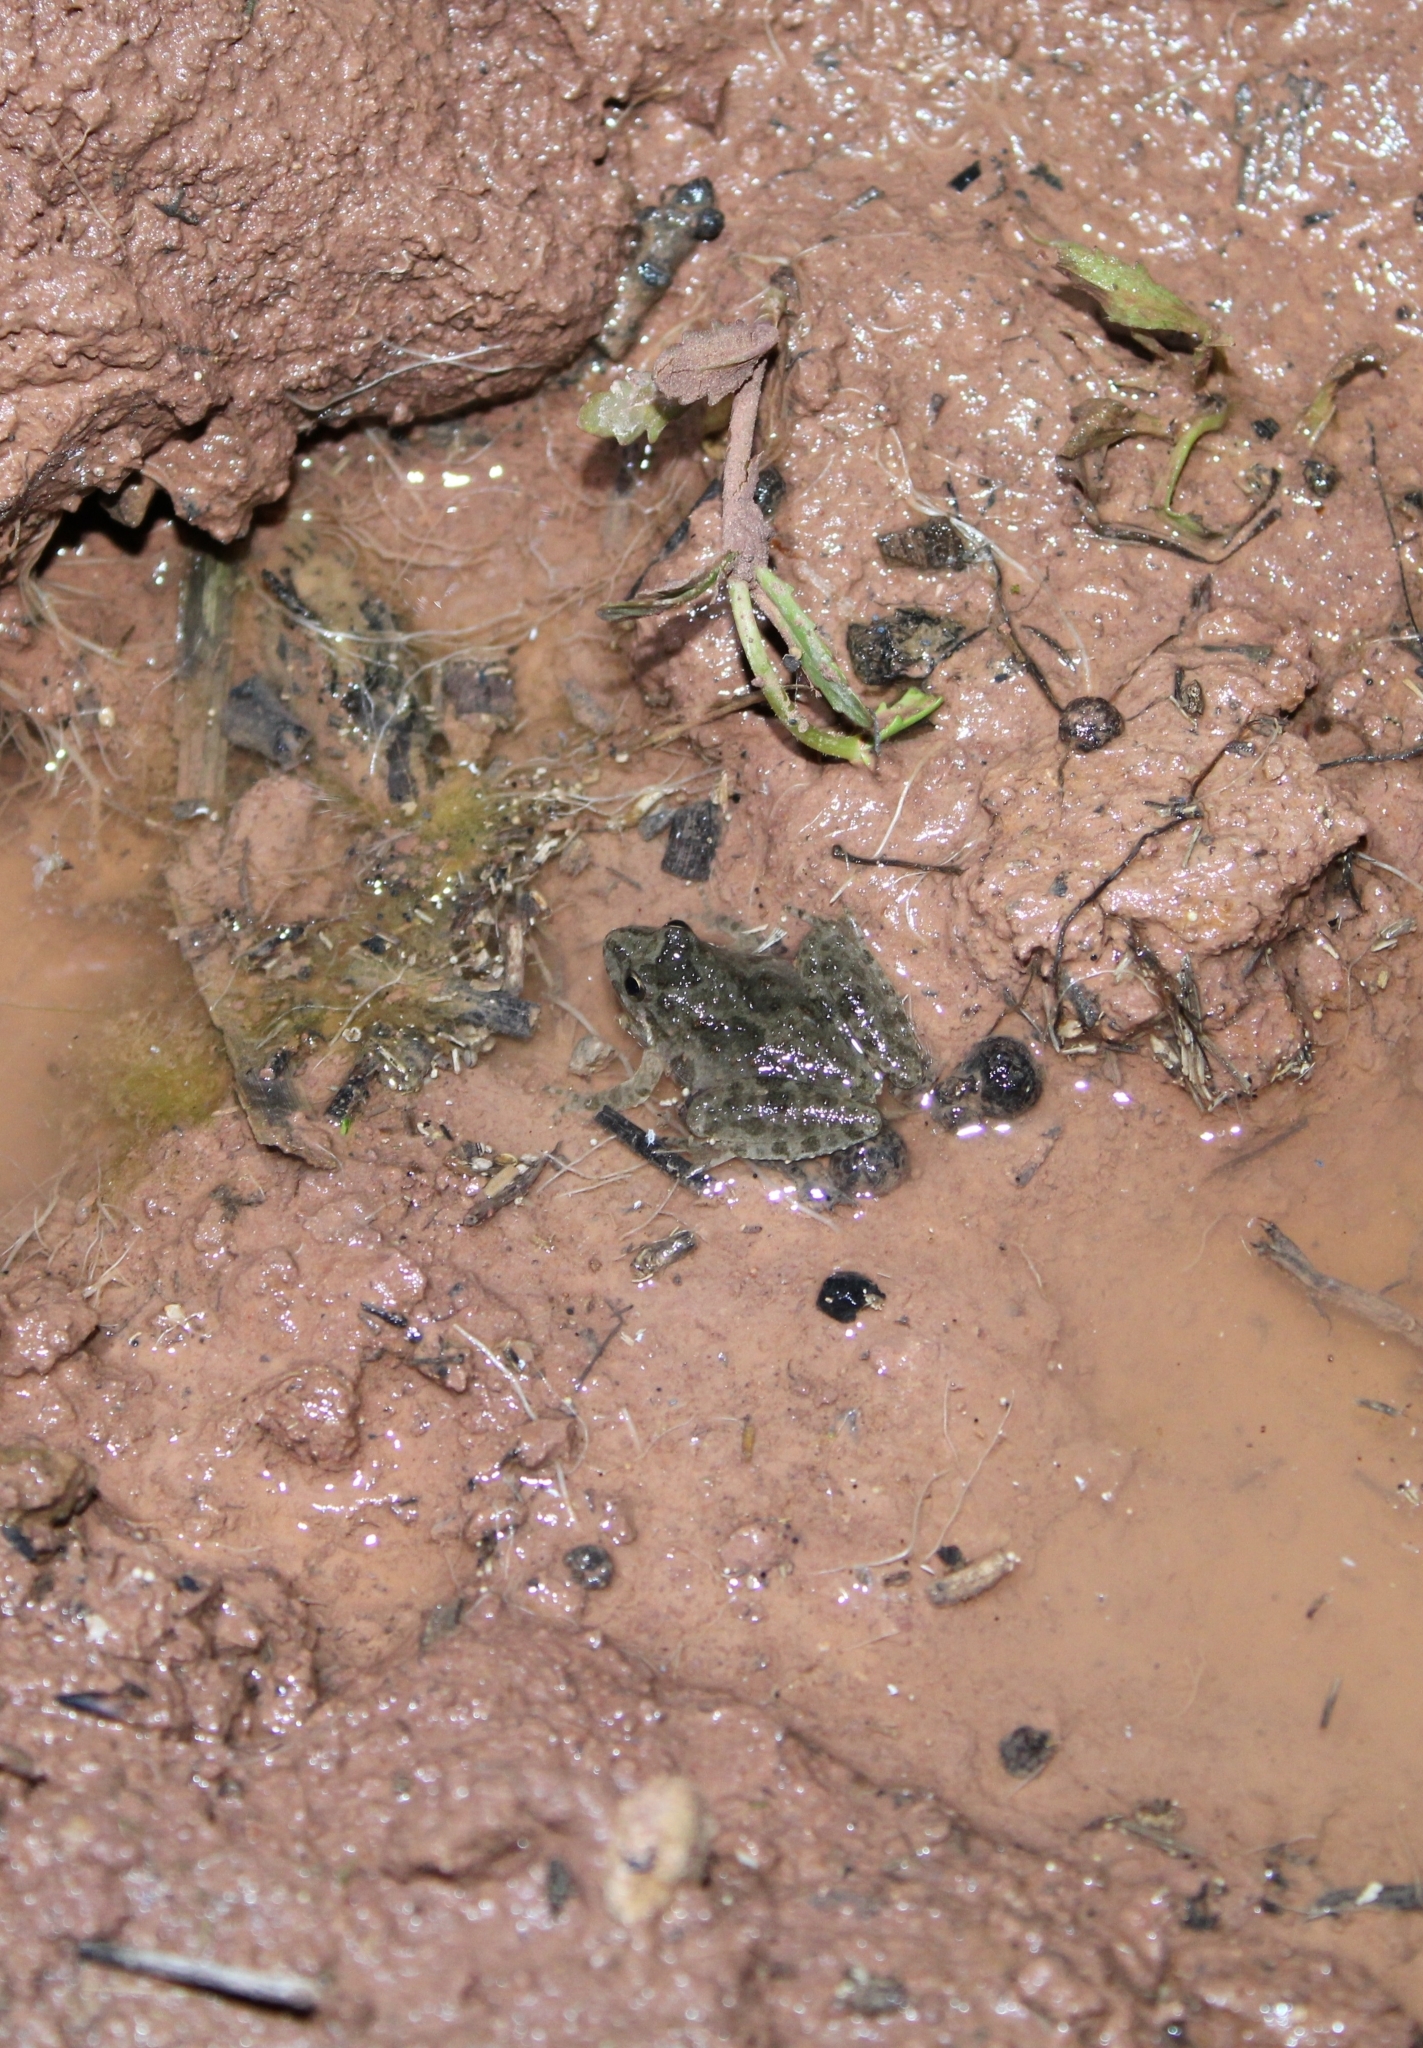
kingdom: Animalia
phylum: Chordata
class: Amphibia
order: Anura
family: Hylidae
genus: Acris
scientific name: Acris blanchardi
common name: Blanchard's cricket frog
